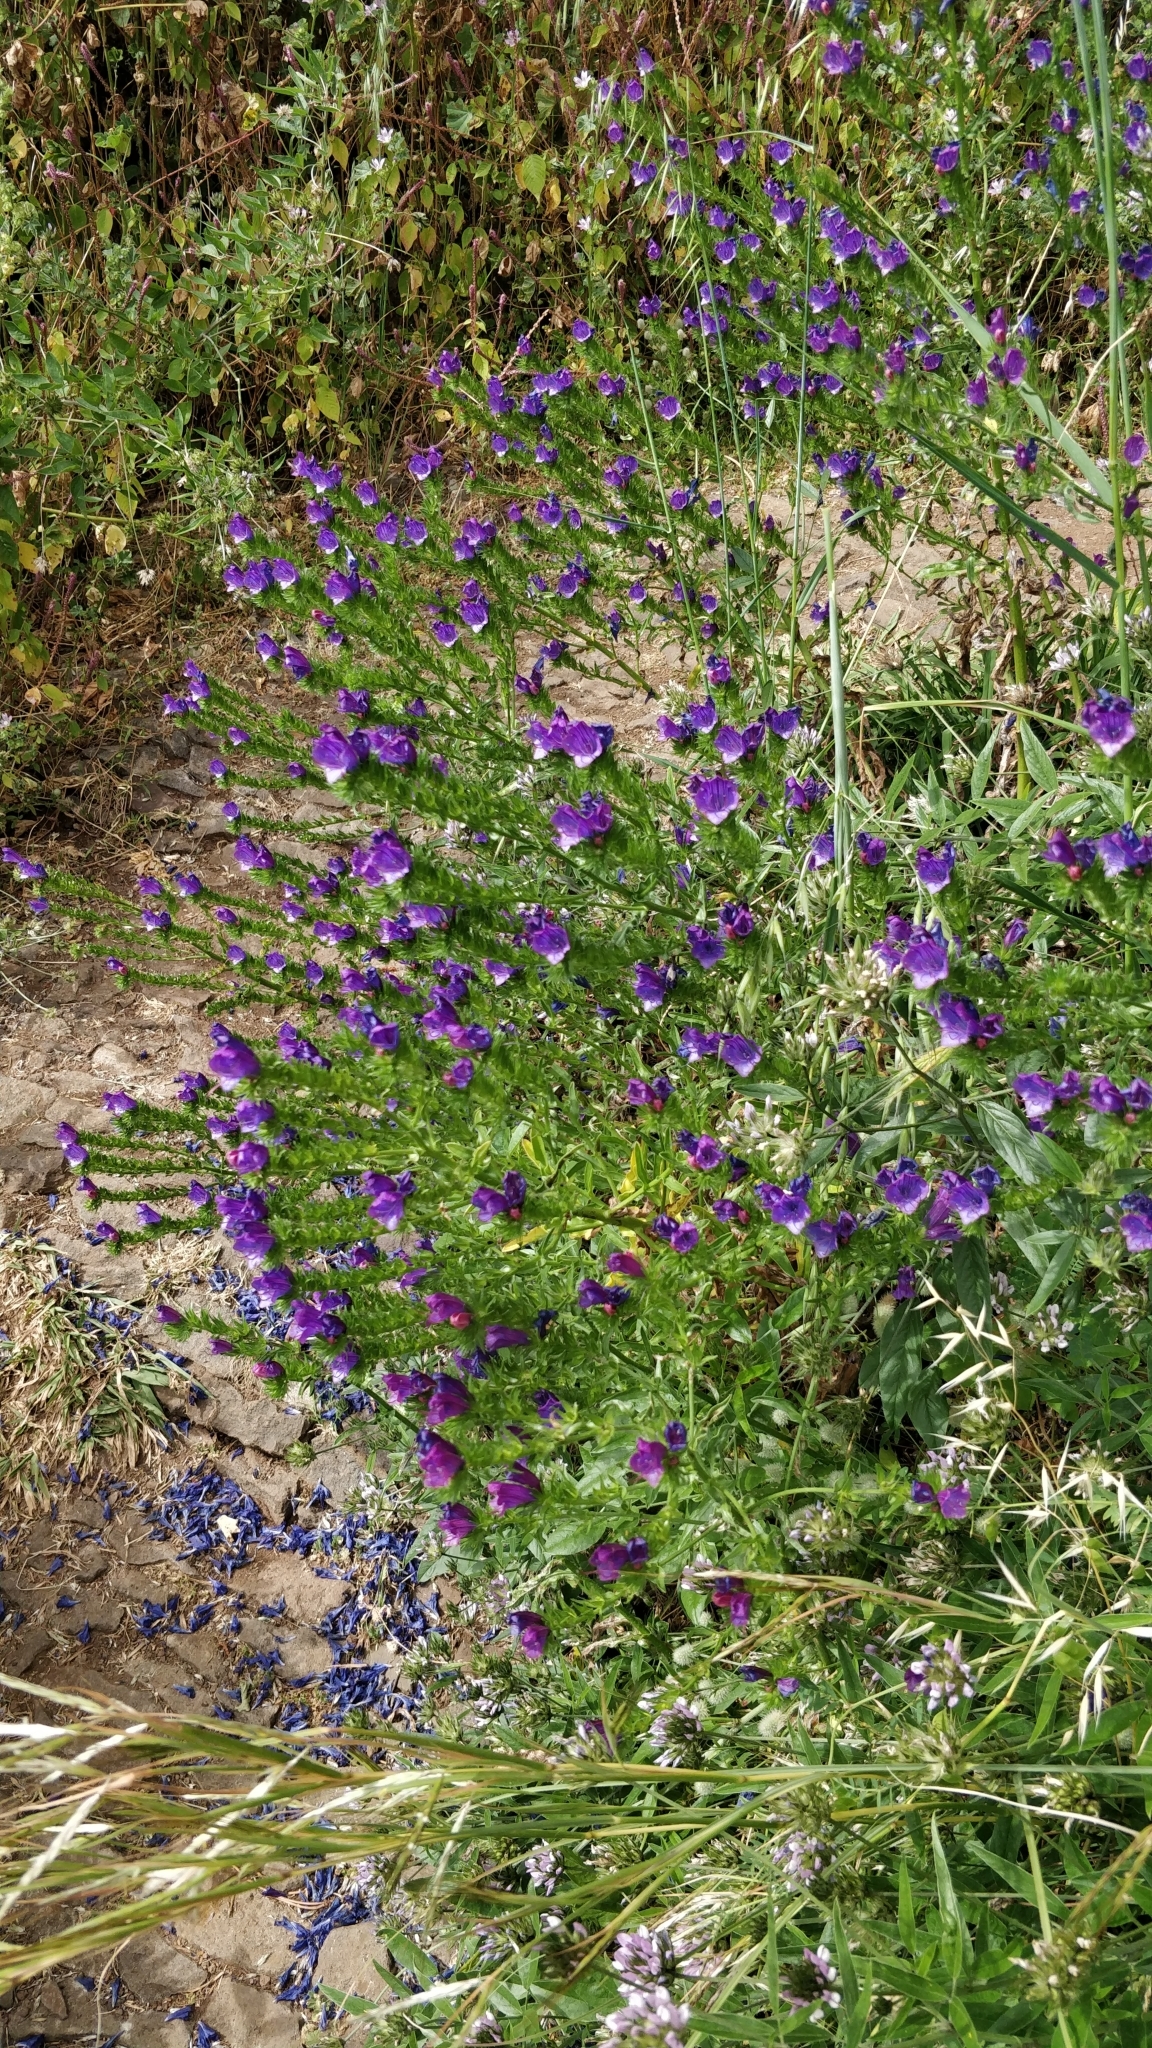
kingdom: Plantae
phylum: Tracheophyta
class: Magnoliopsida
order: Boraginales
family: Boraginaceae
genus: Echium
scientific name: Echium plantagineum
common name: Purple viper's-bugloss
